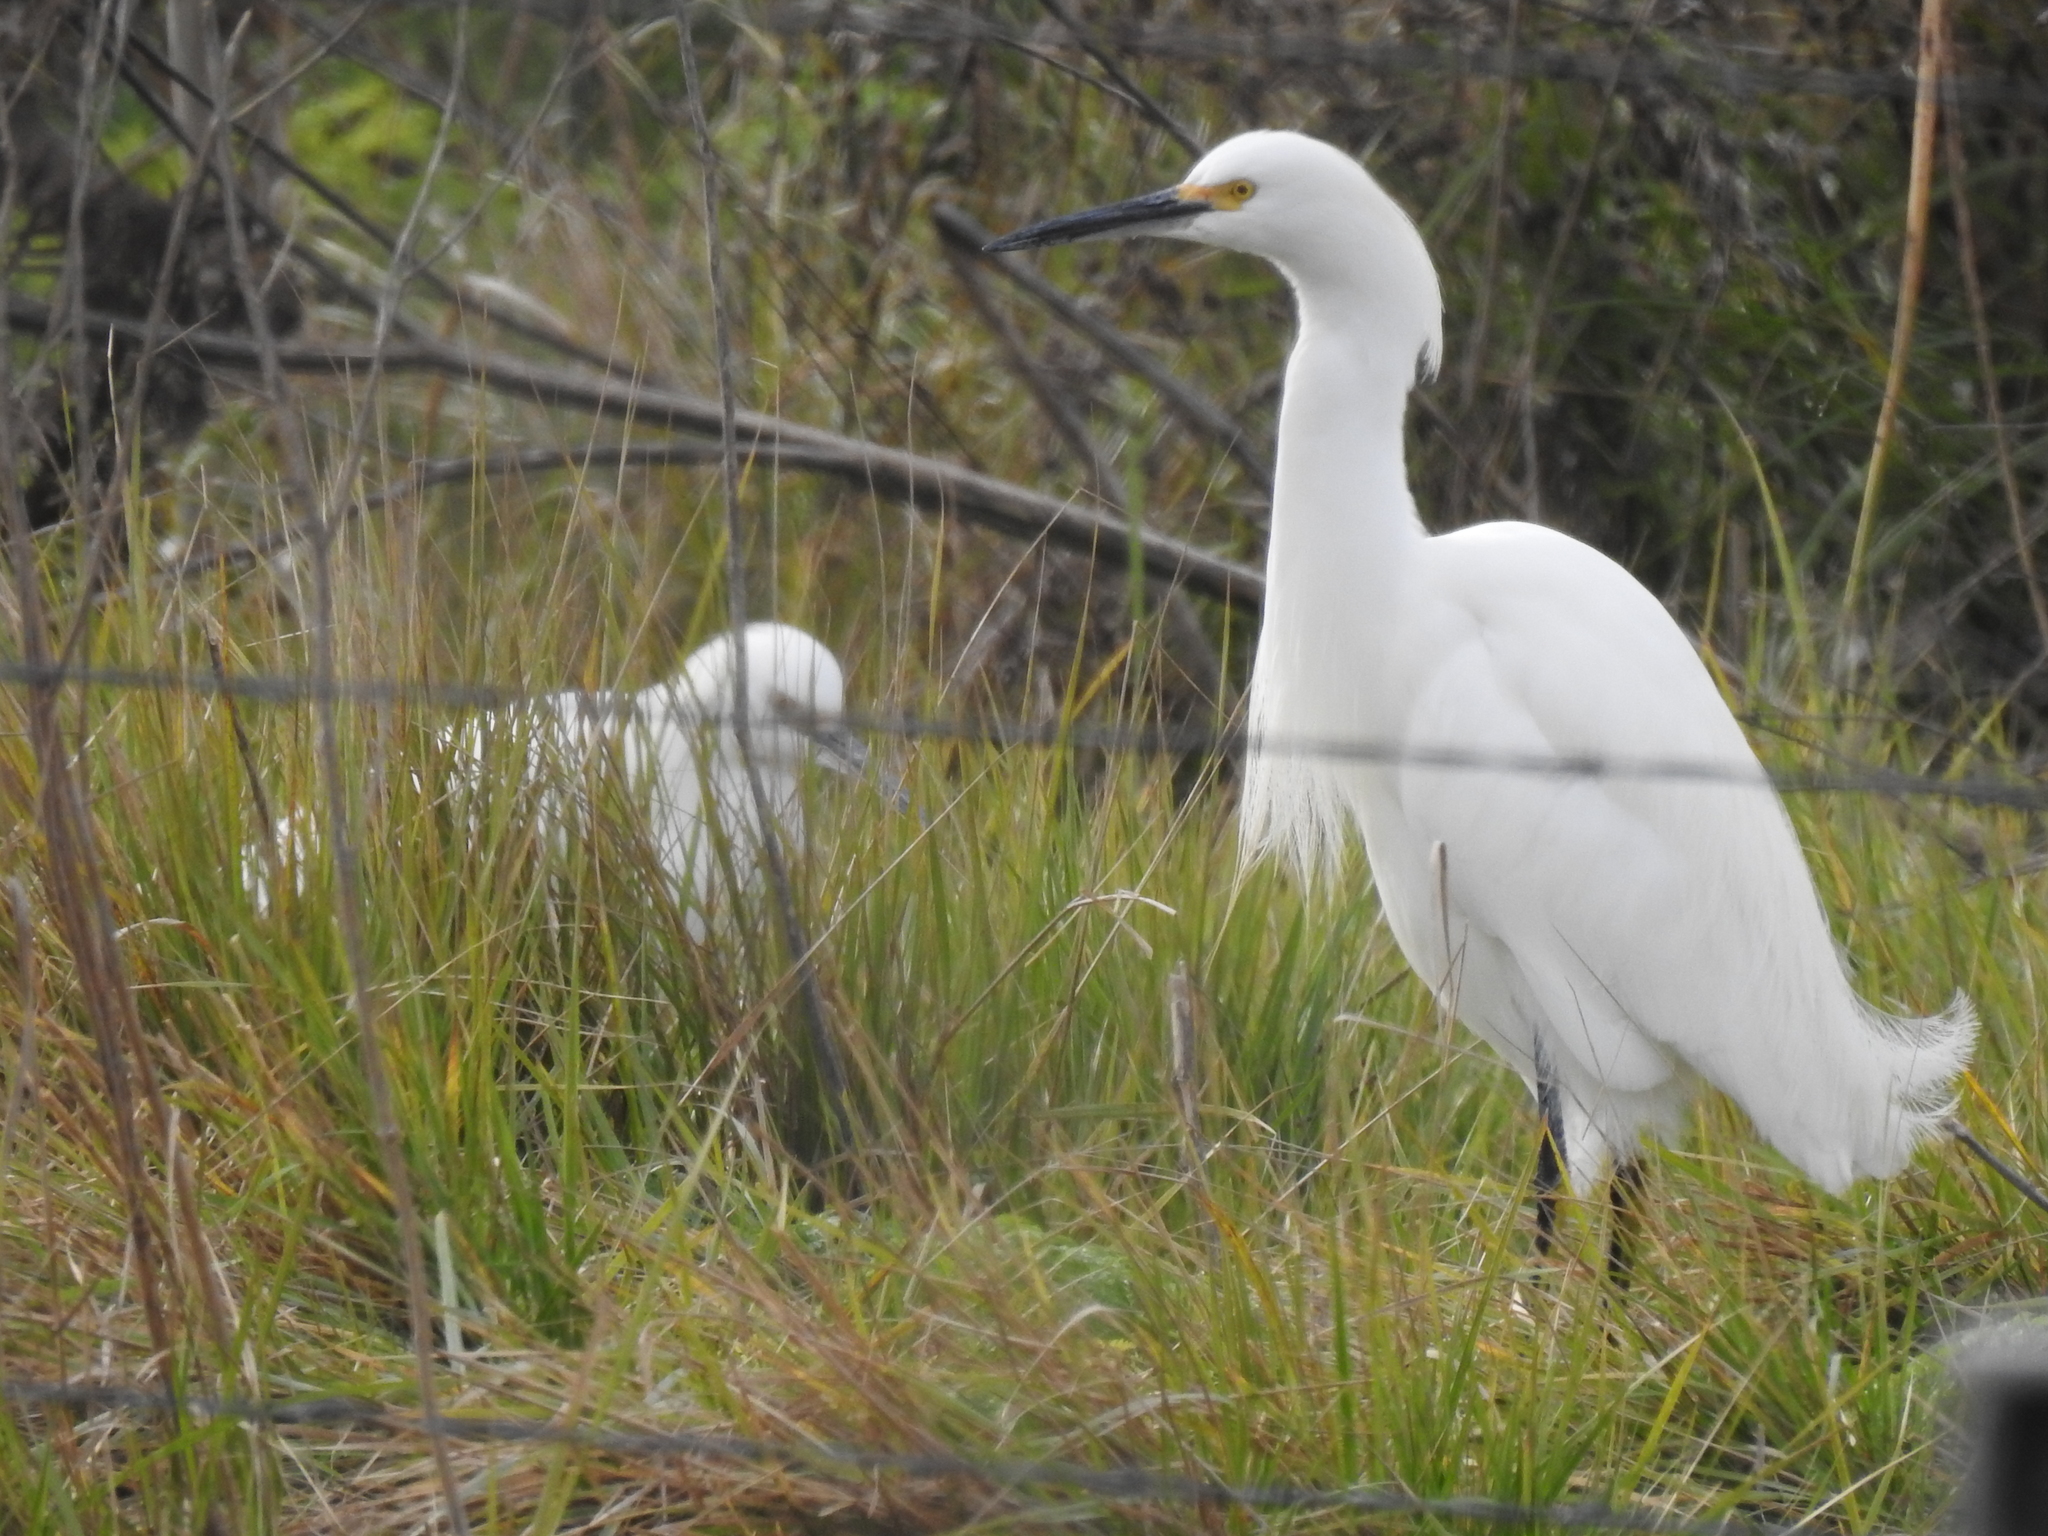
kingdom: Animalia
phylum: Chordata
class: Aves
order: Pelecaniformes
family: Ardeidae
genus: Egretta
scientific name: Egretta thula
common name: Snowy egret
